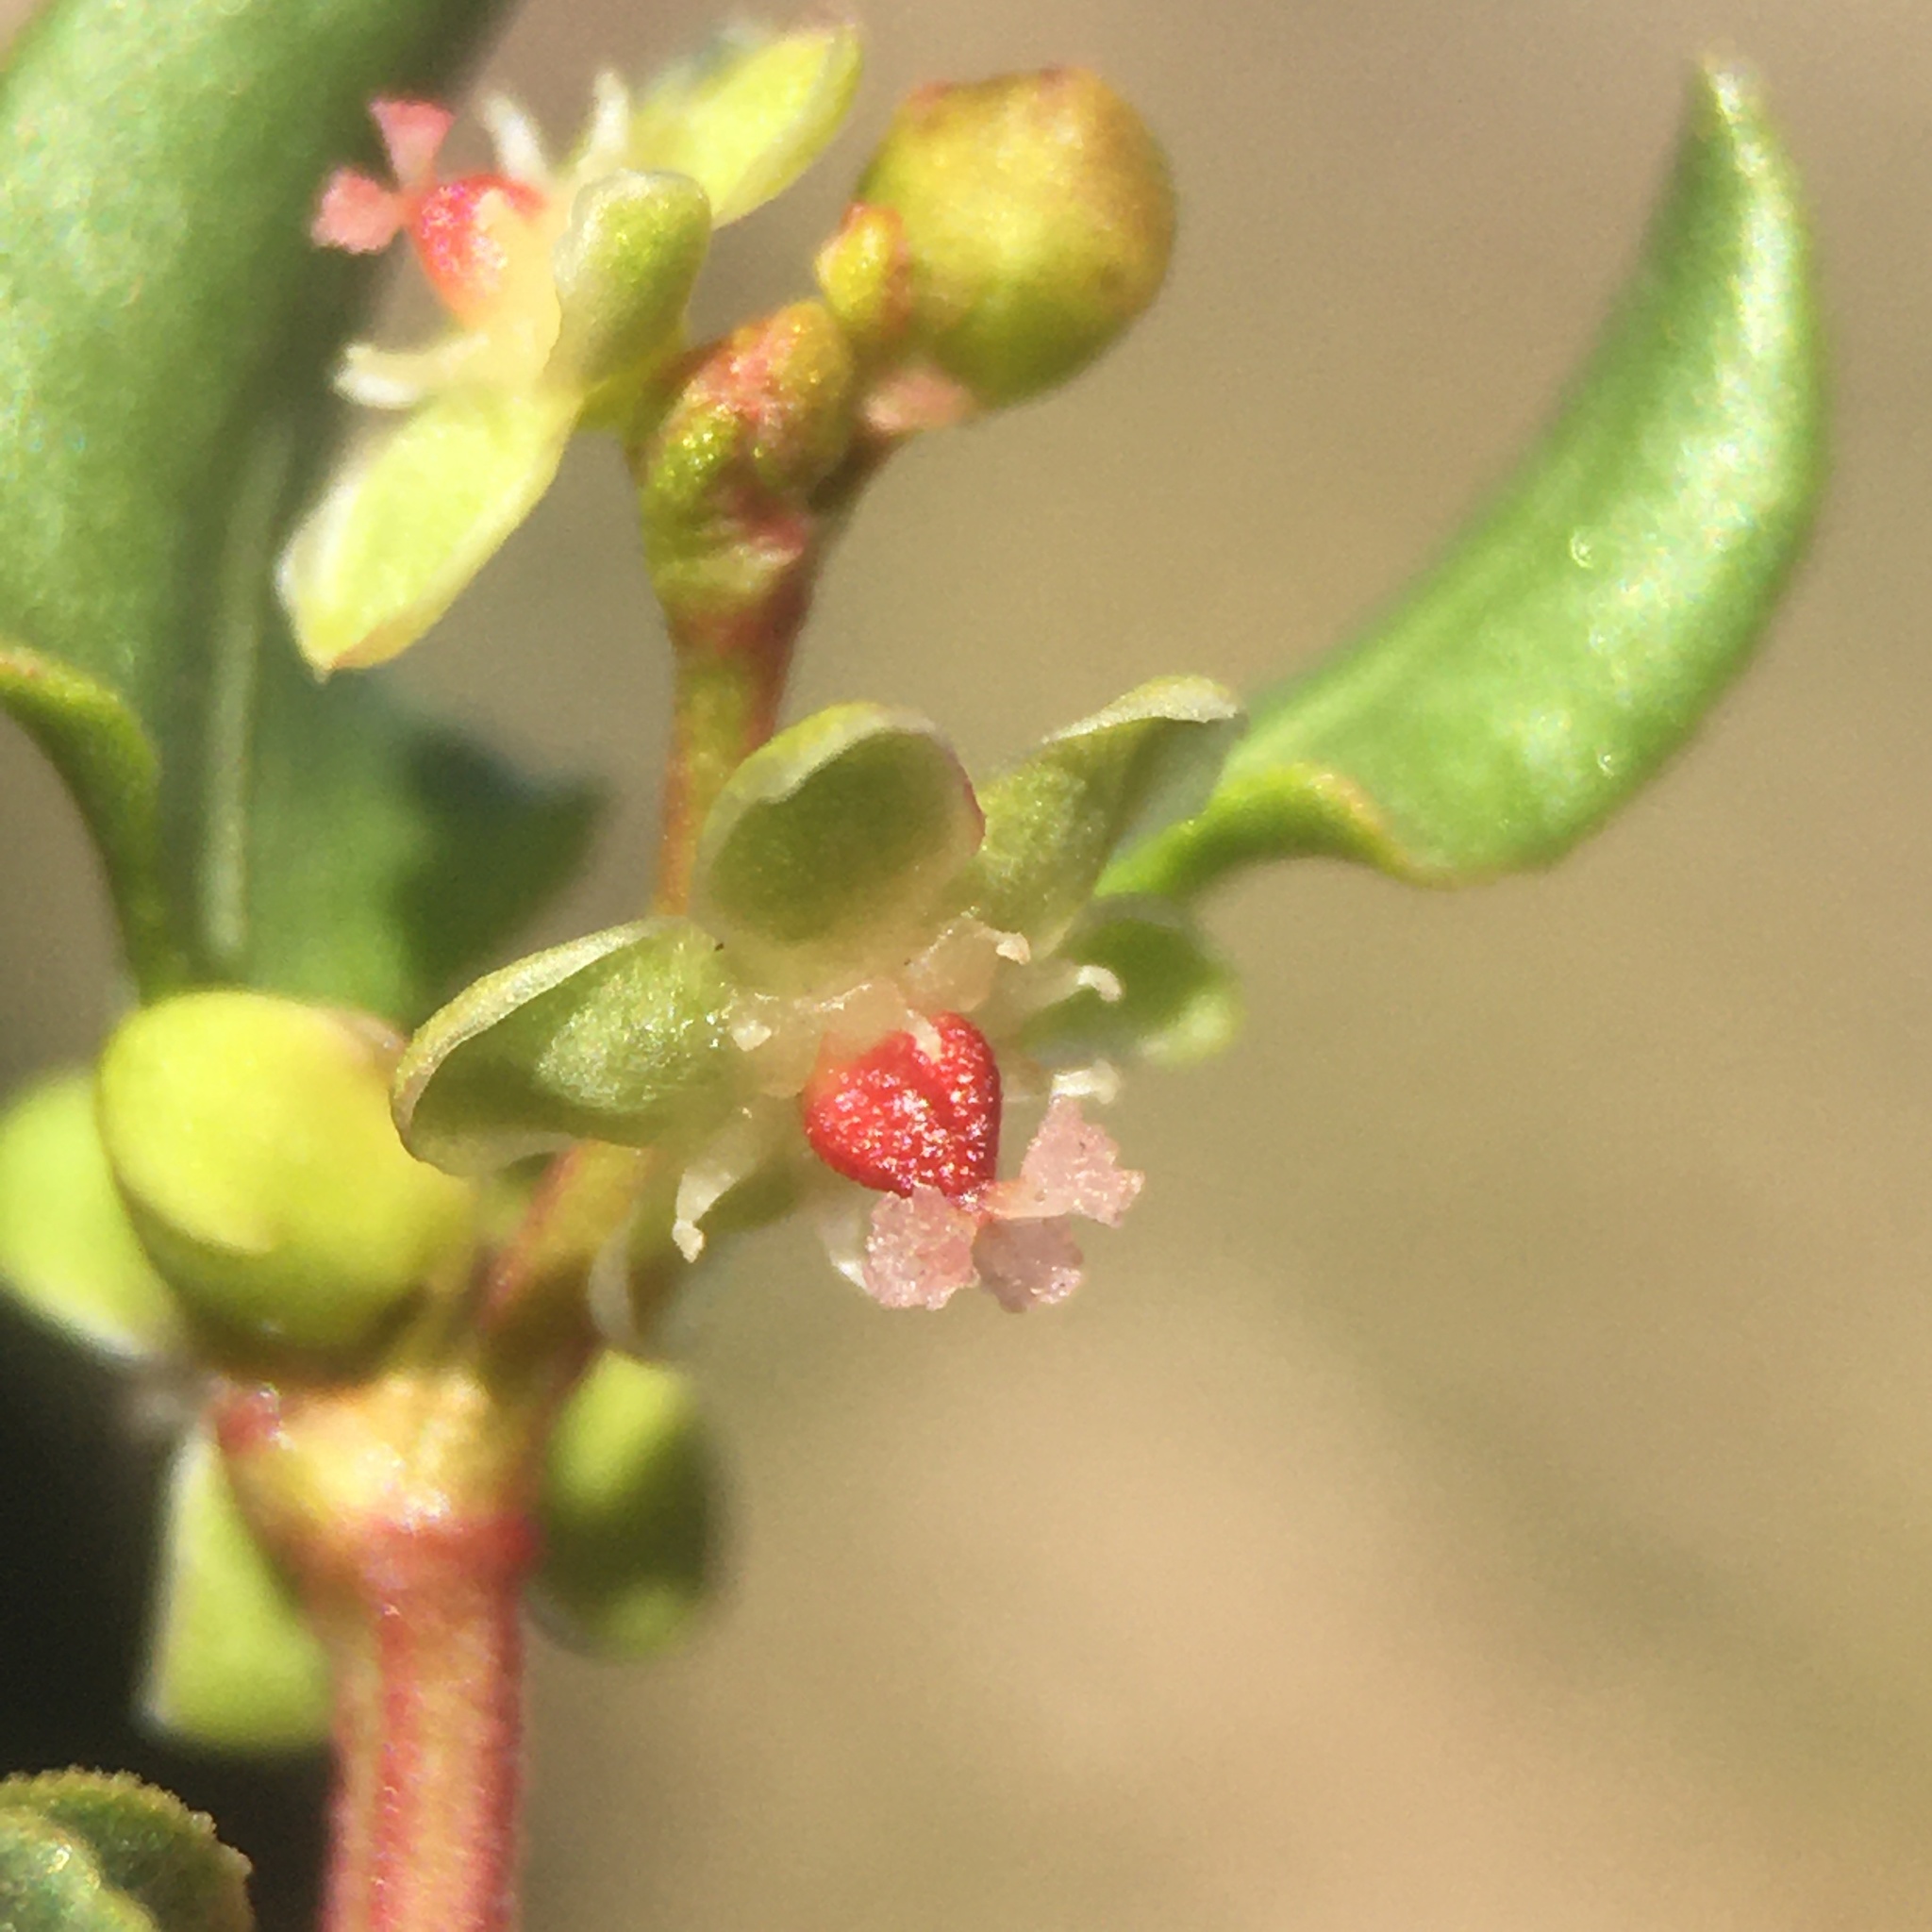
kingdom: Plantae
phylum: Tracheophyta
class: Magnoliopsida
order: Caryophyllales
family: Polygonaceae
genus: Muehlenbeckia
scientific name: Muehlenbeckia hastulata
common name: Wirevine
